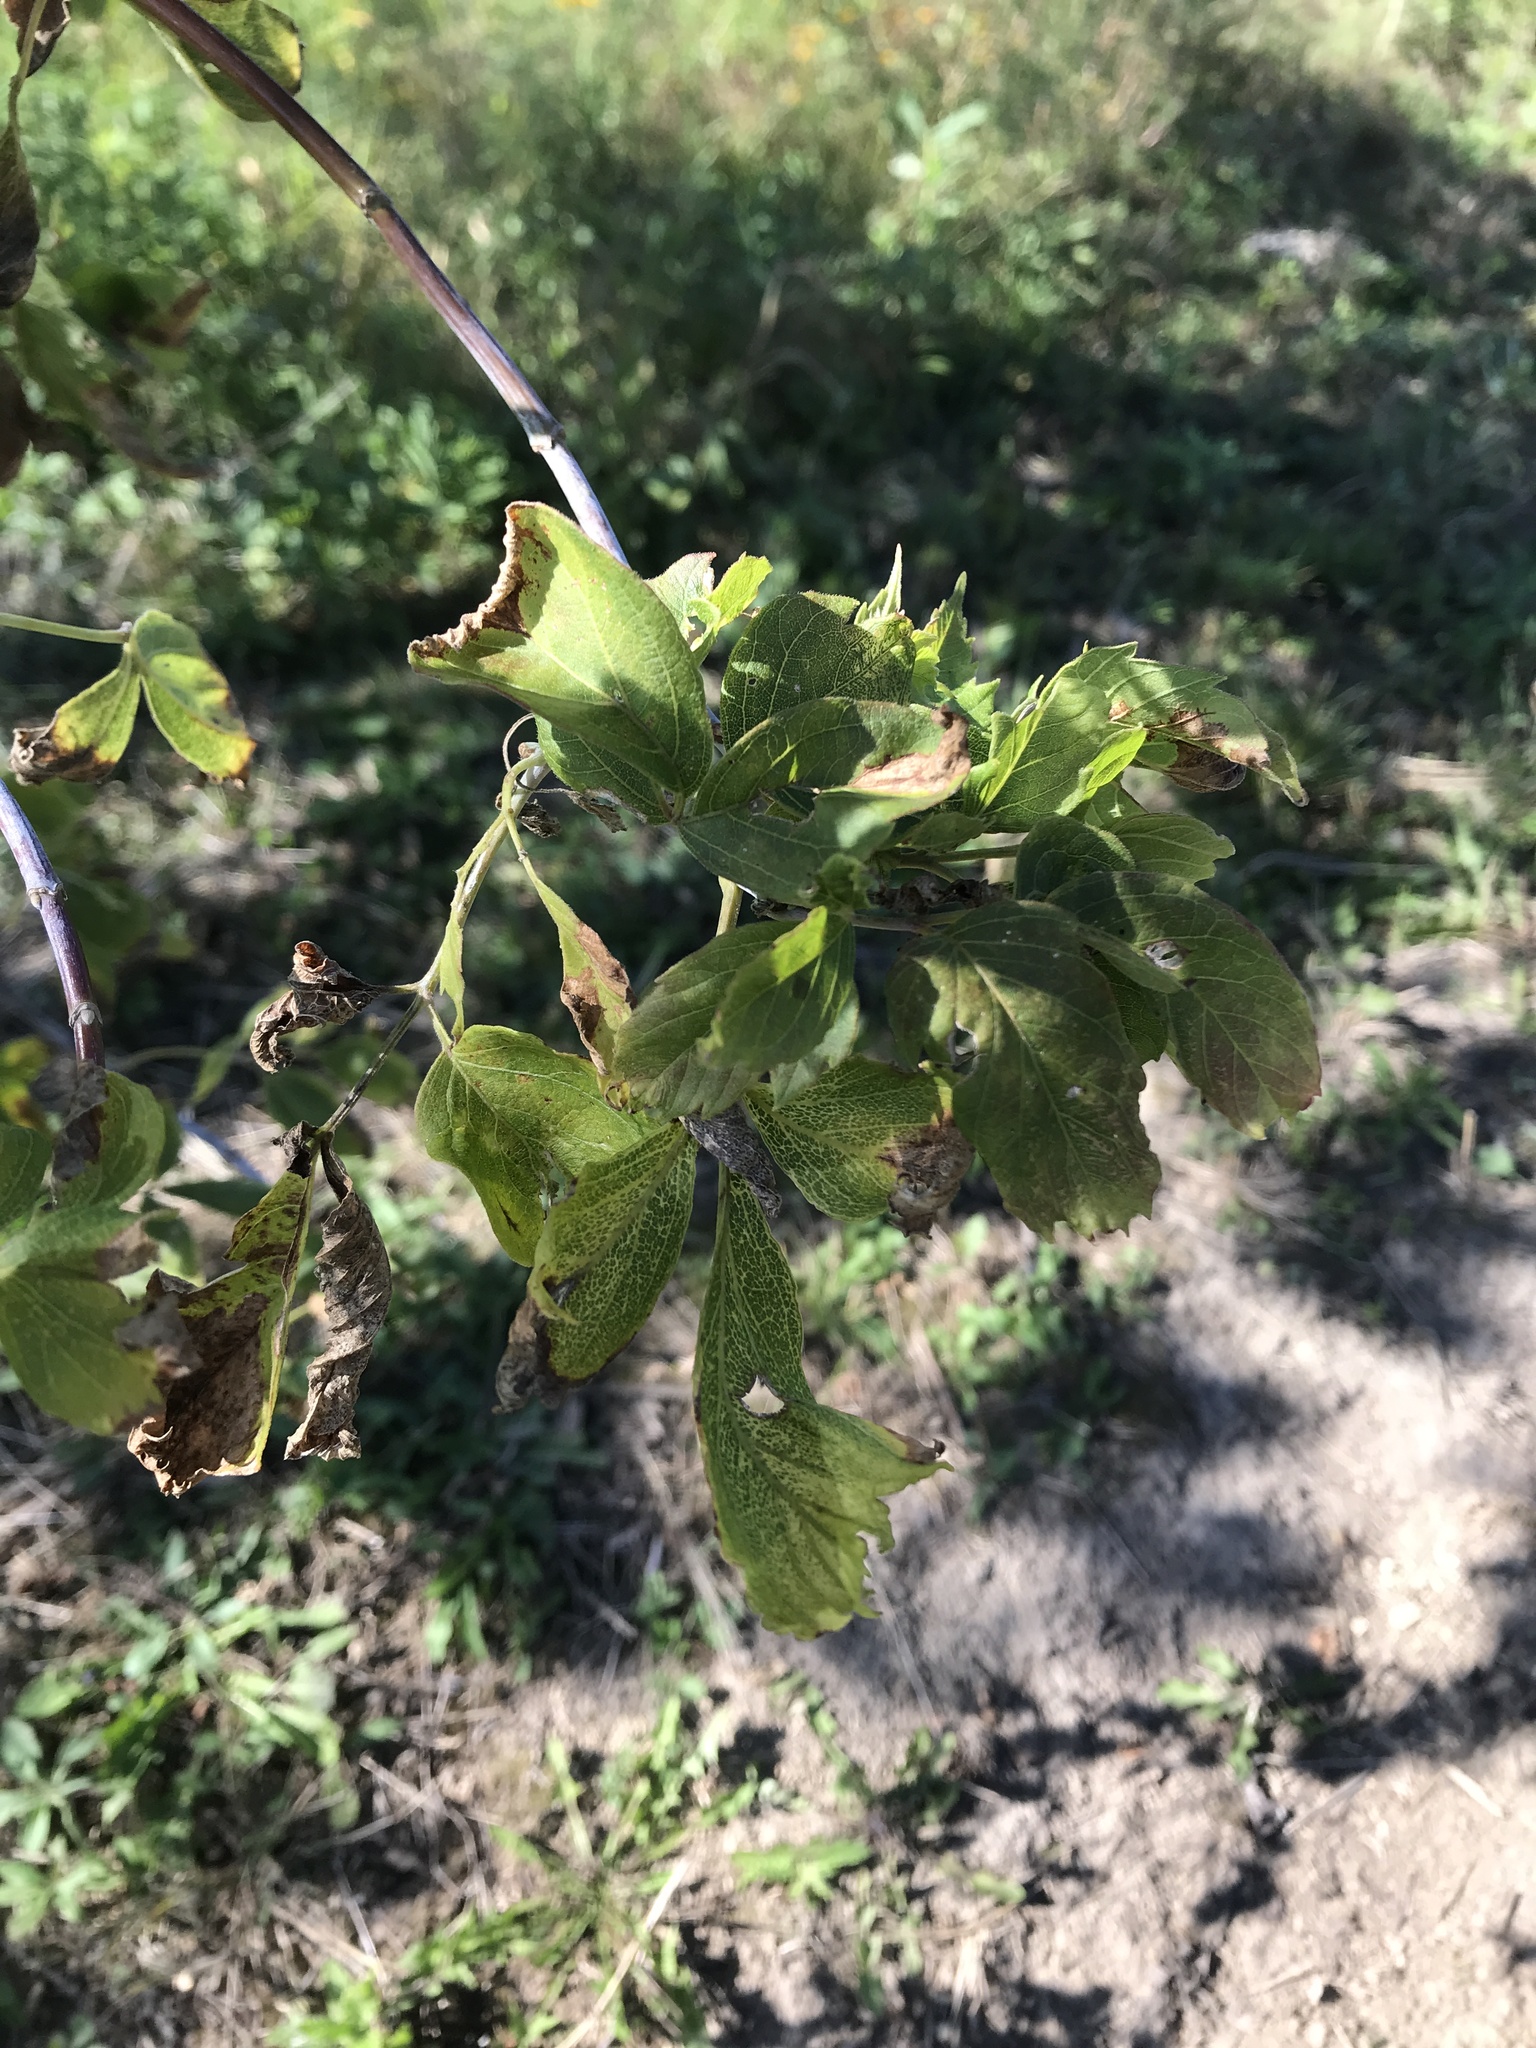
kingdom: Plantae
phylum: Tracheophyta
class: Magnoliopsida
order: Sapindales
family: Sapindaceae
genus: Acer
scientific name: Acer negundo
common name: Ashleaf maple
